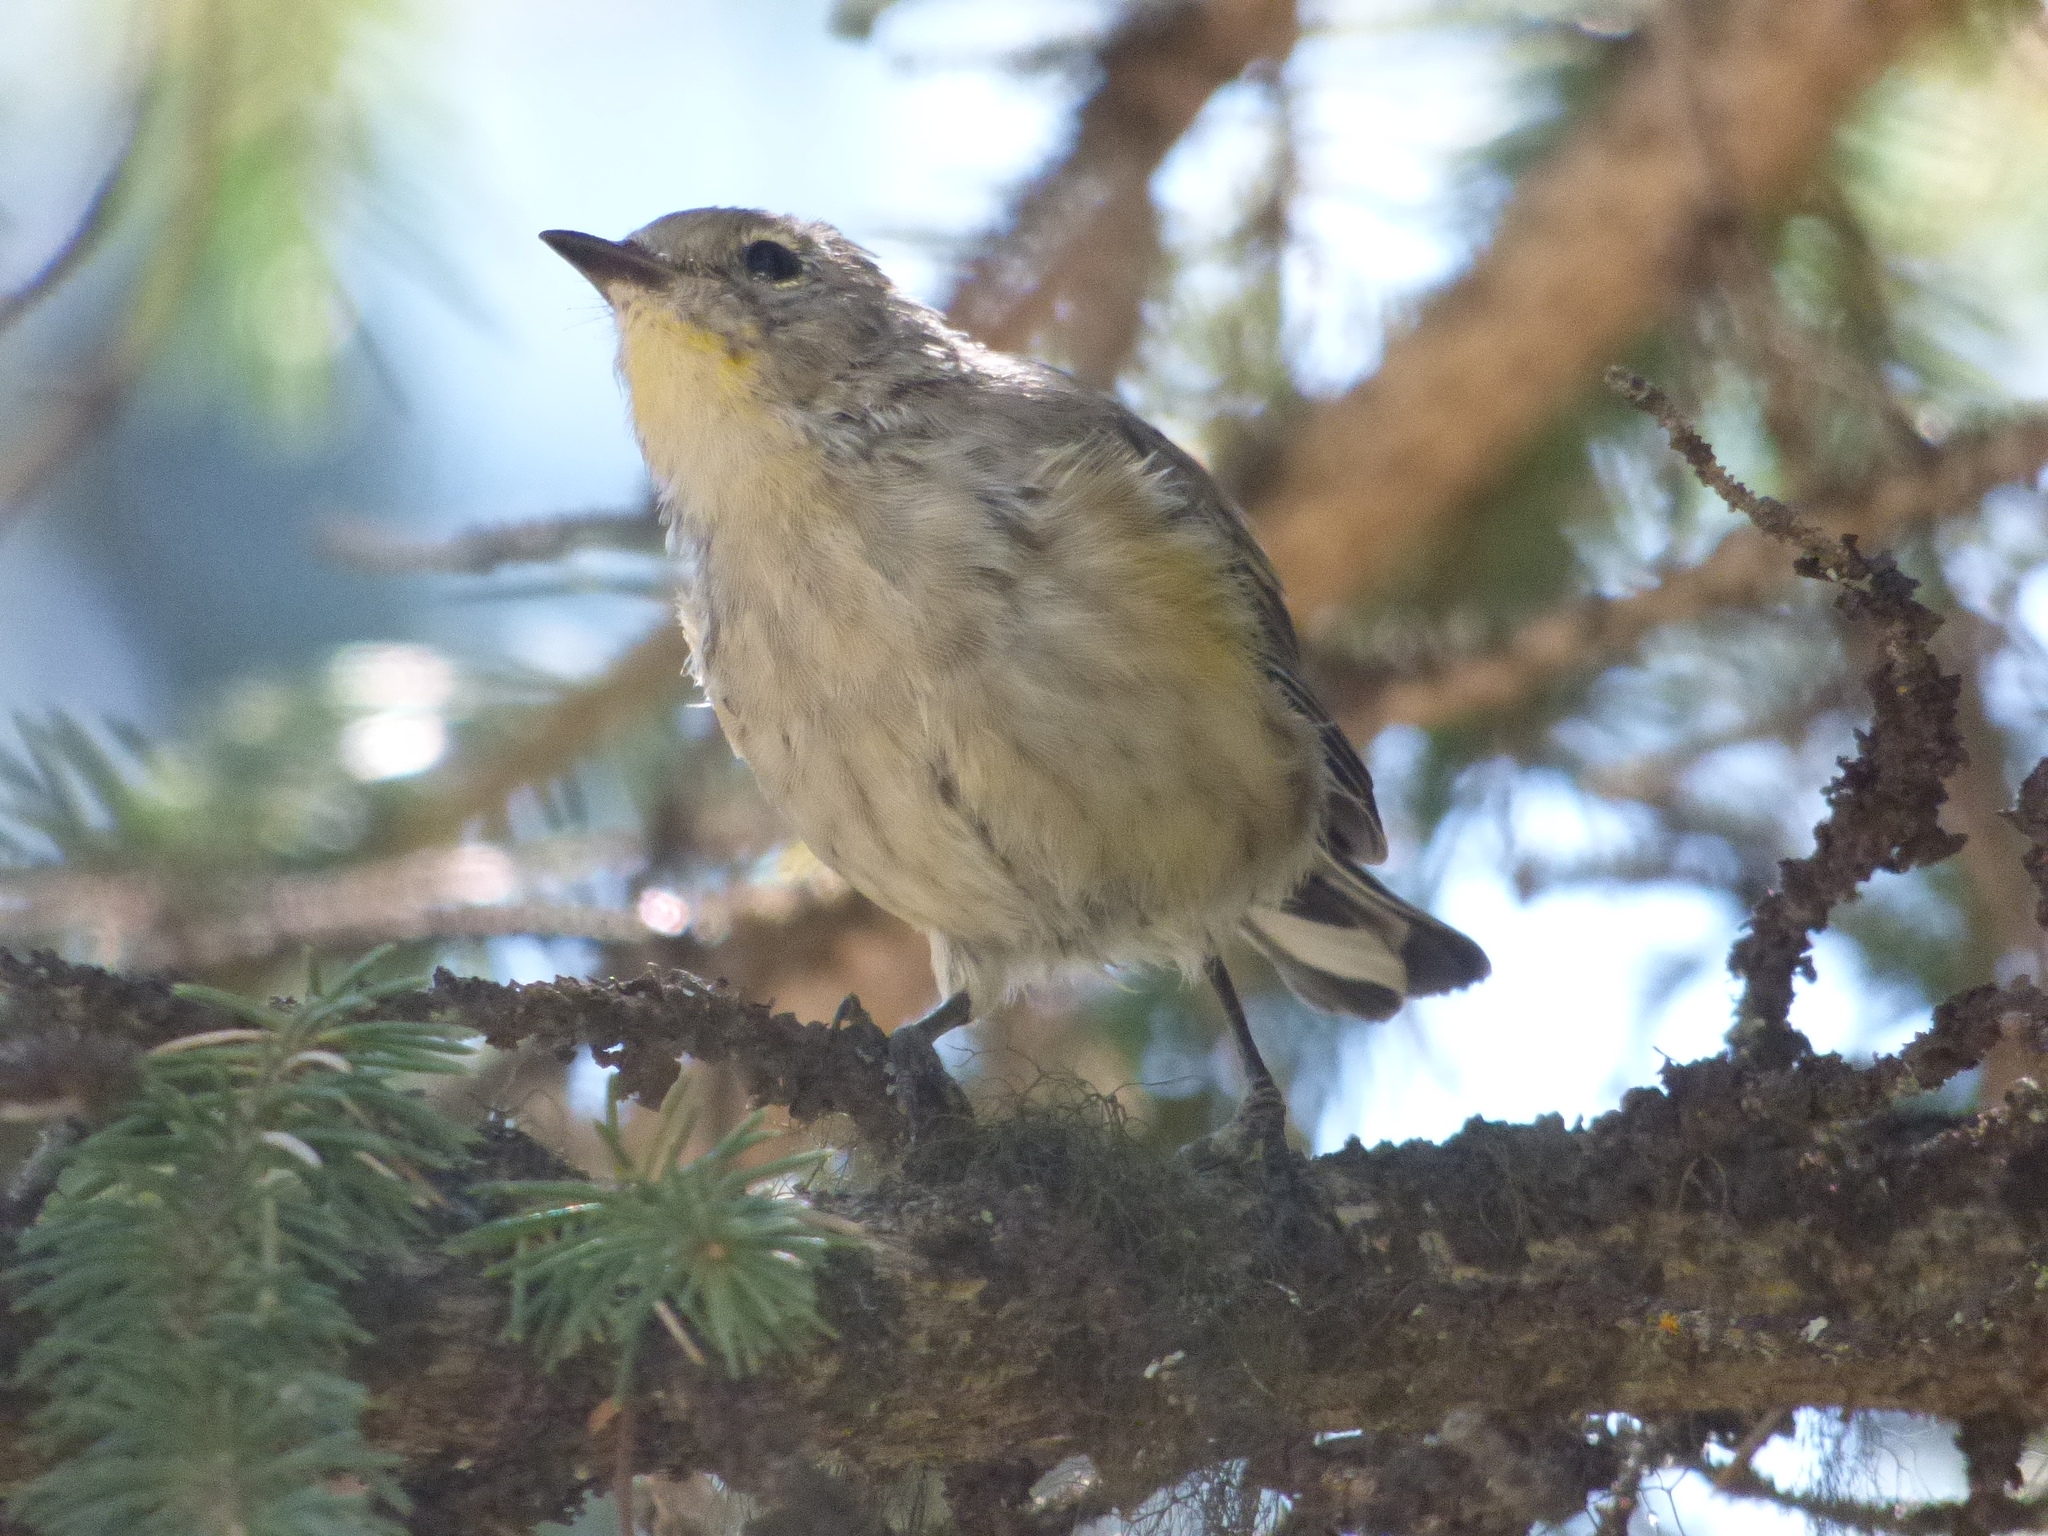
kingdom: Animalia
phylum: Chordata
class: Aves
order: Passeriformes
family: Parulidae
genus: Setophaga
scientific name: Setophaga coronata
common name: Myrtle warbler
